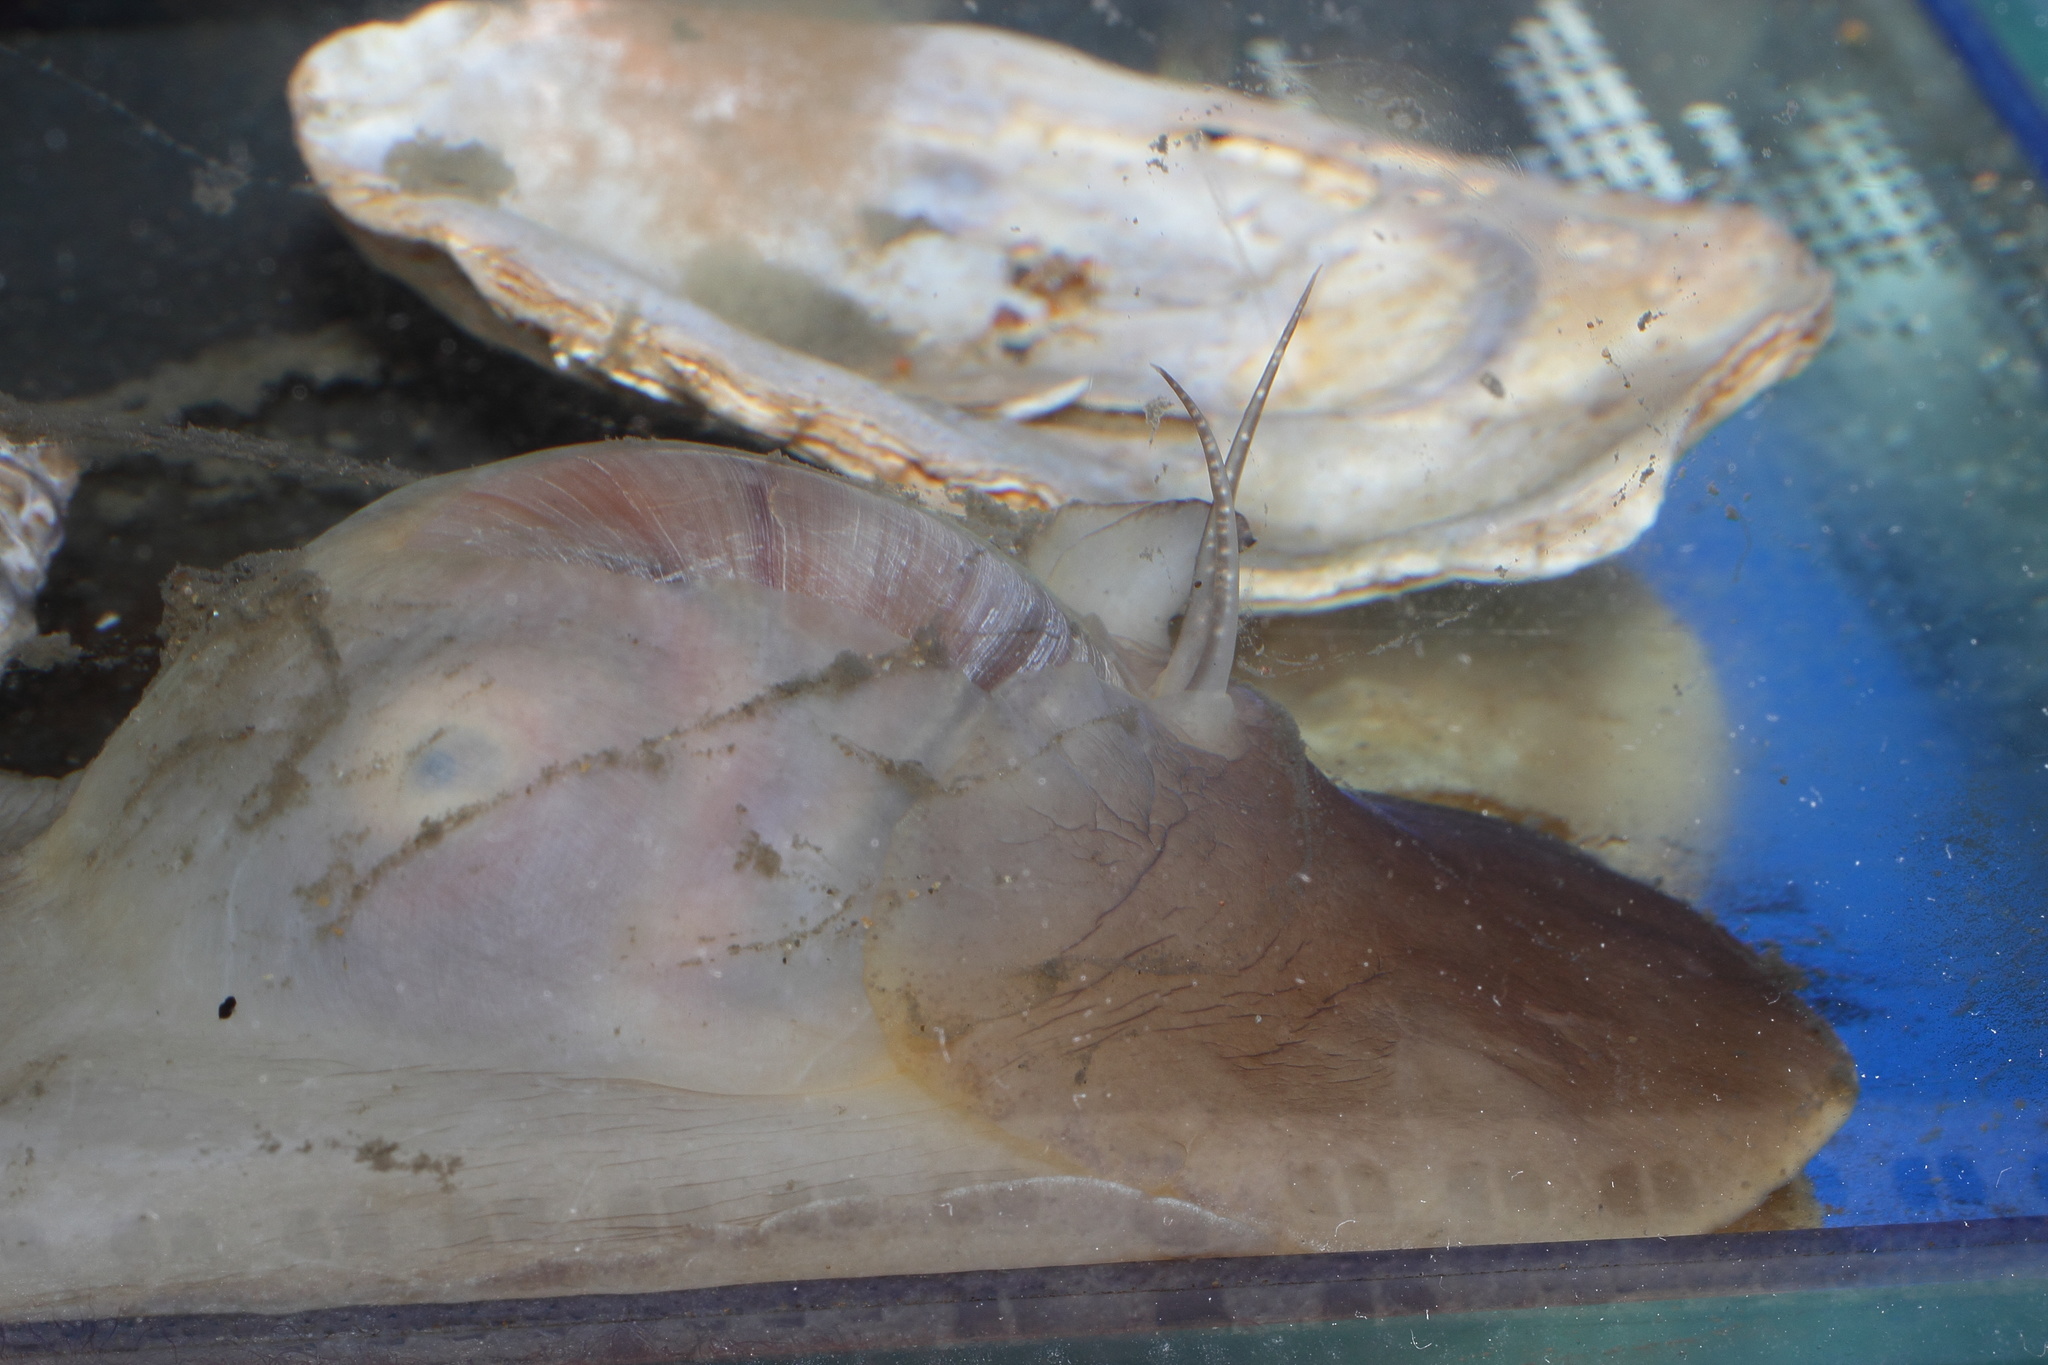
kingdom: Animalia
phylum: Mollusca
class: Gastropoda
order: Littorinimorpha
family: Naticidae
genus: Neverita
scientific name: Neverita didyma
